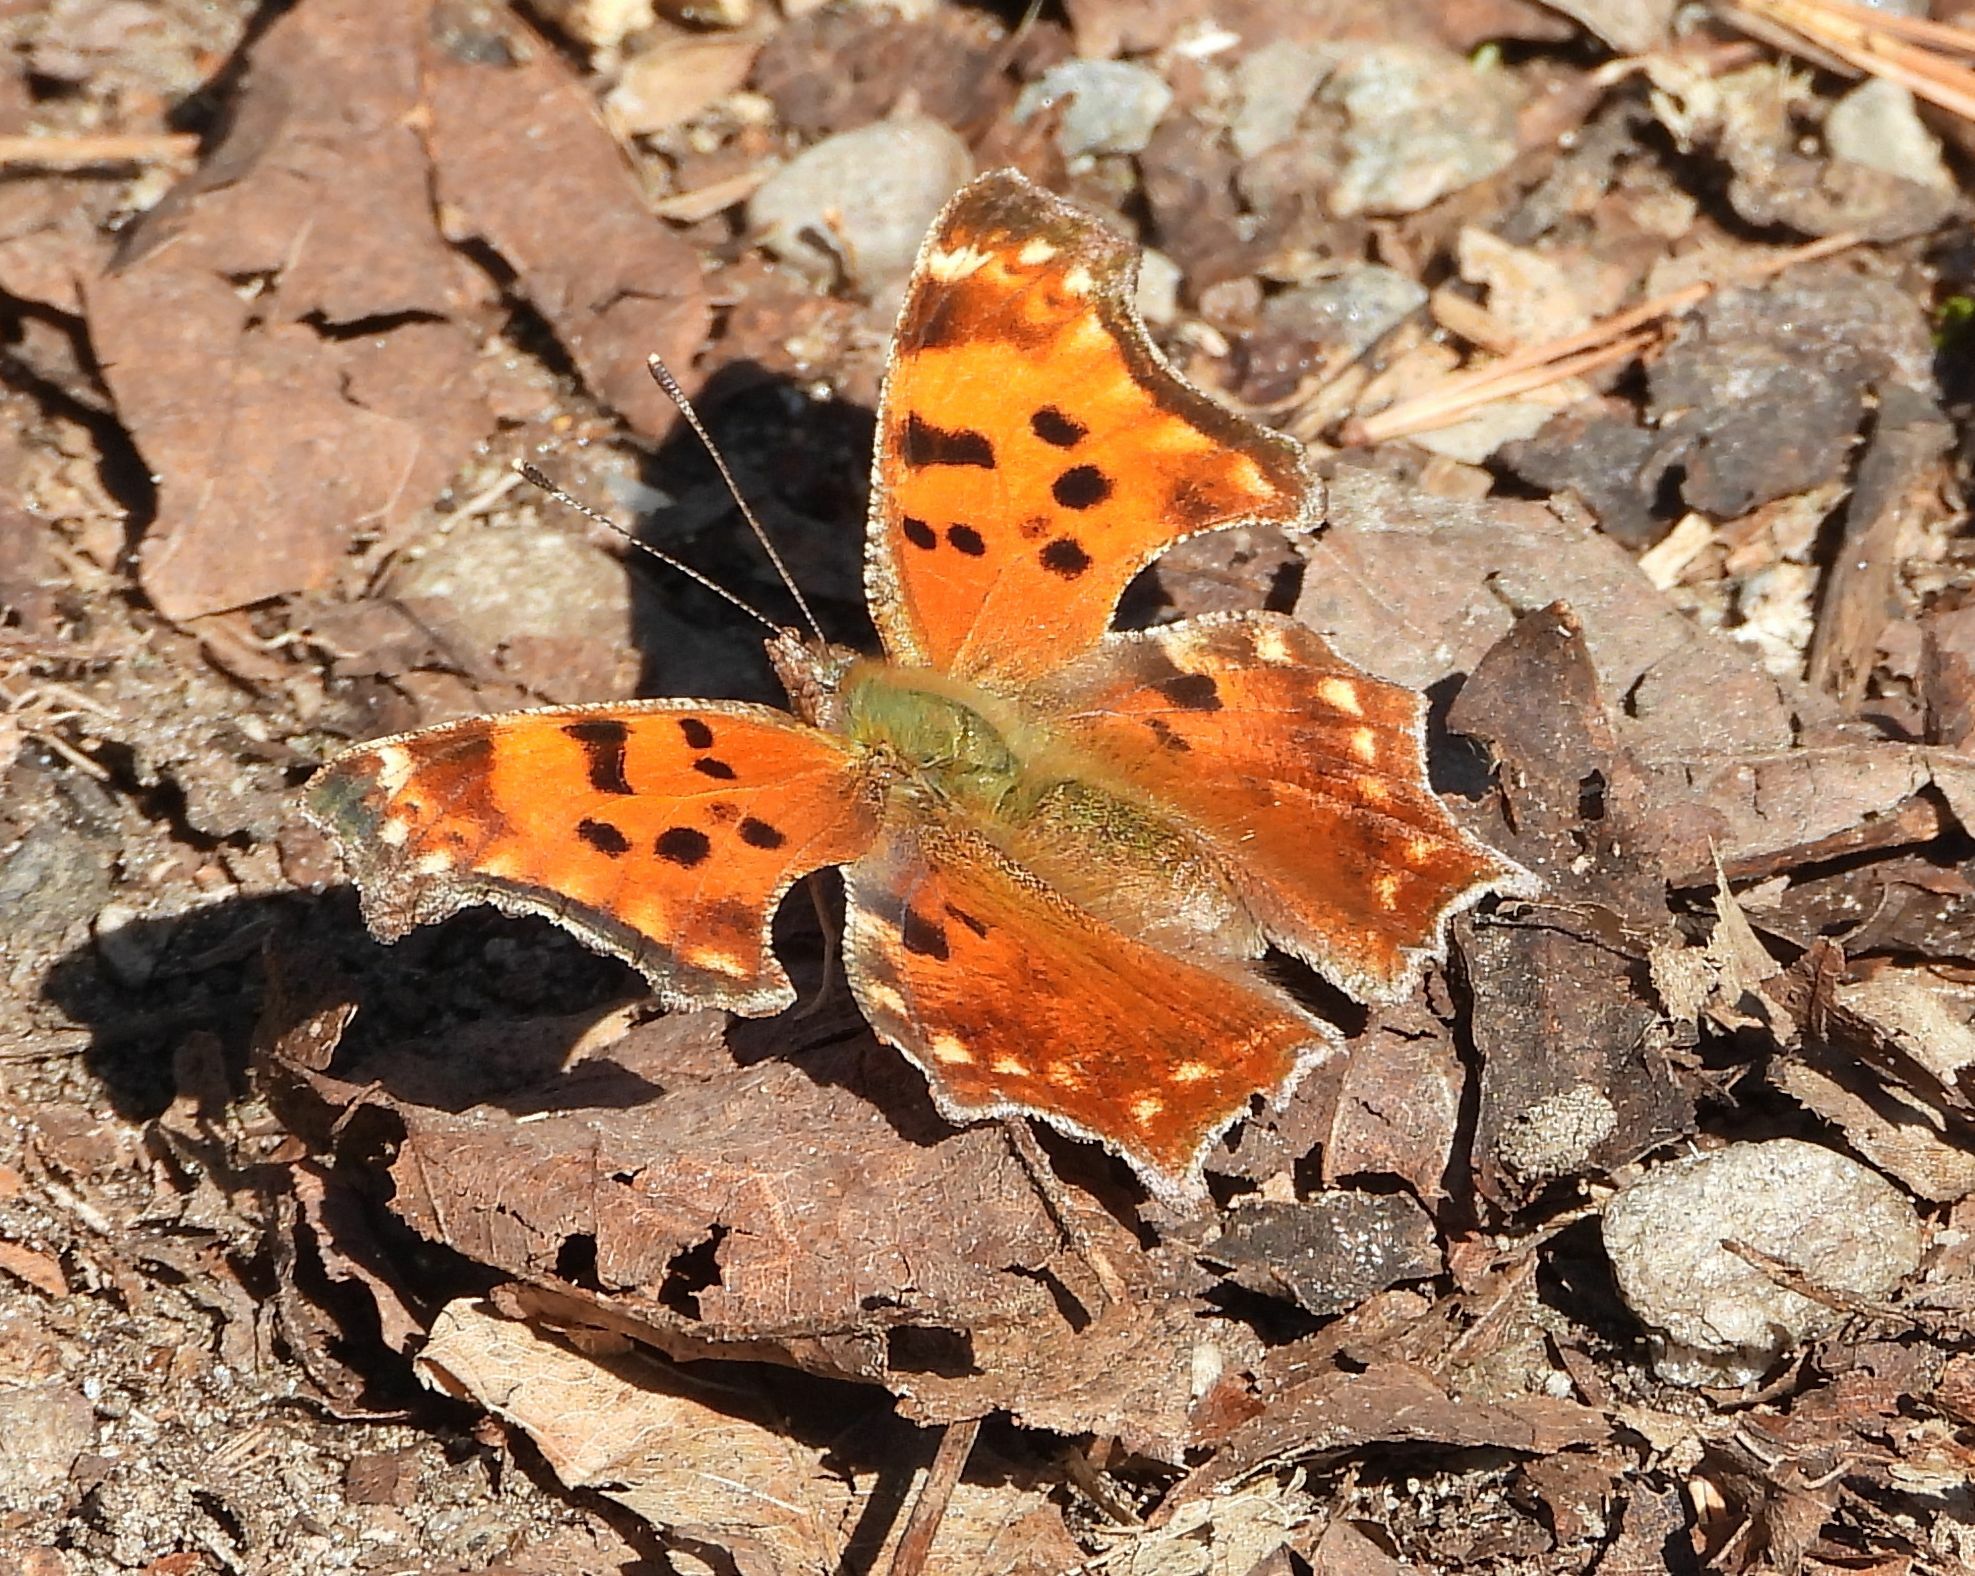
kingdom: Animalia
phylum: Arthropoda
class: Insecta
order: Lepidoptera
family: Nymphalidae
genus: Polygonia
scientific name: Polygonia comma
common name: Eastern comma
